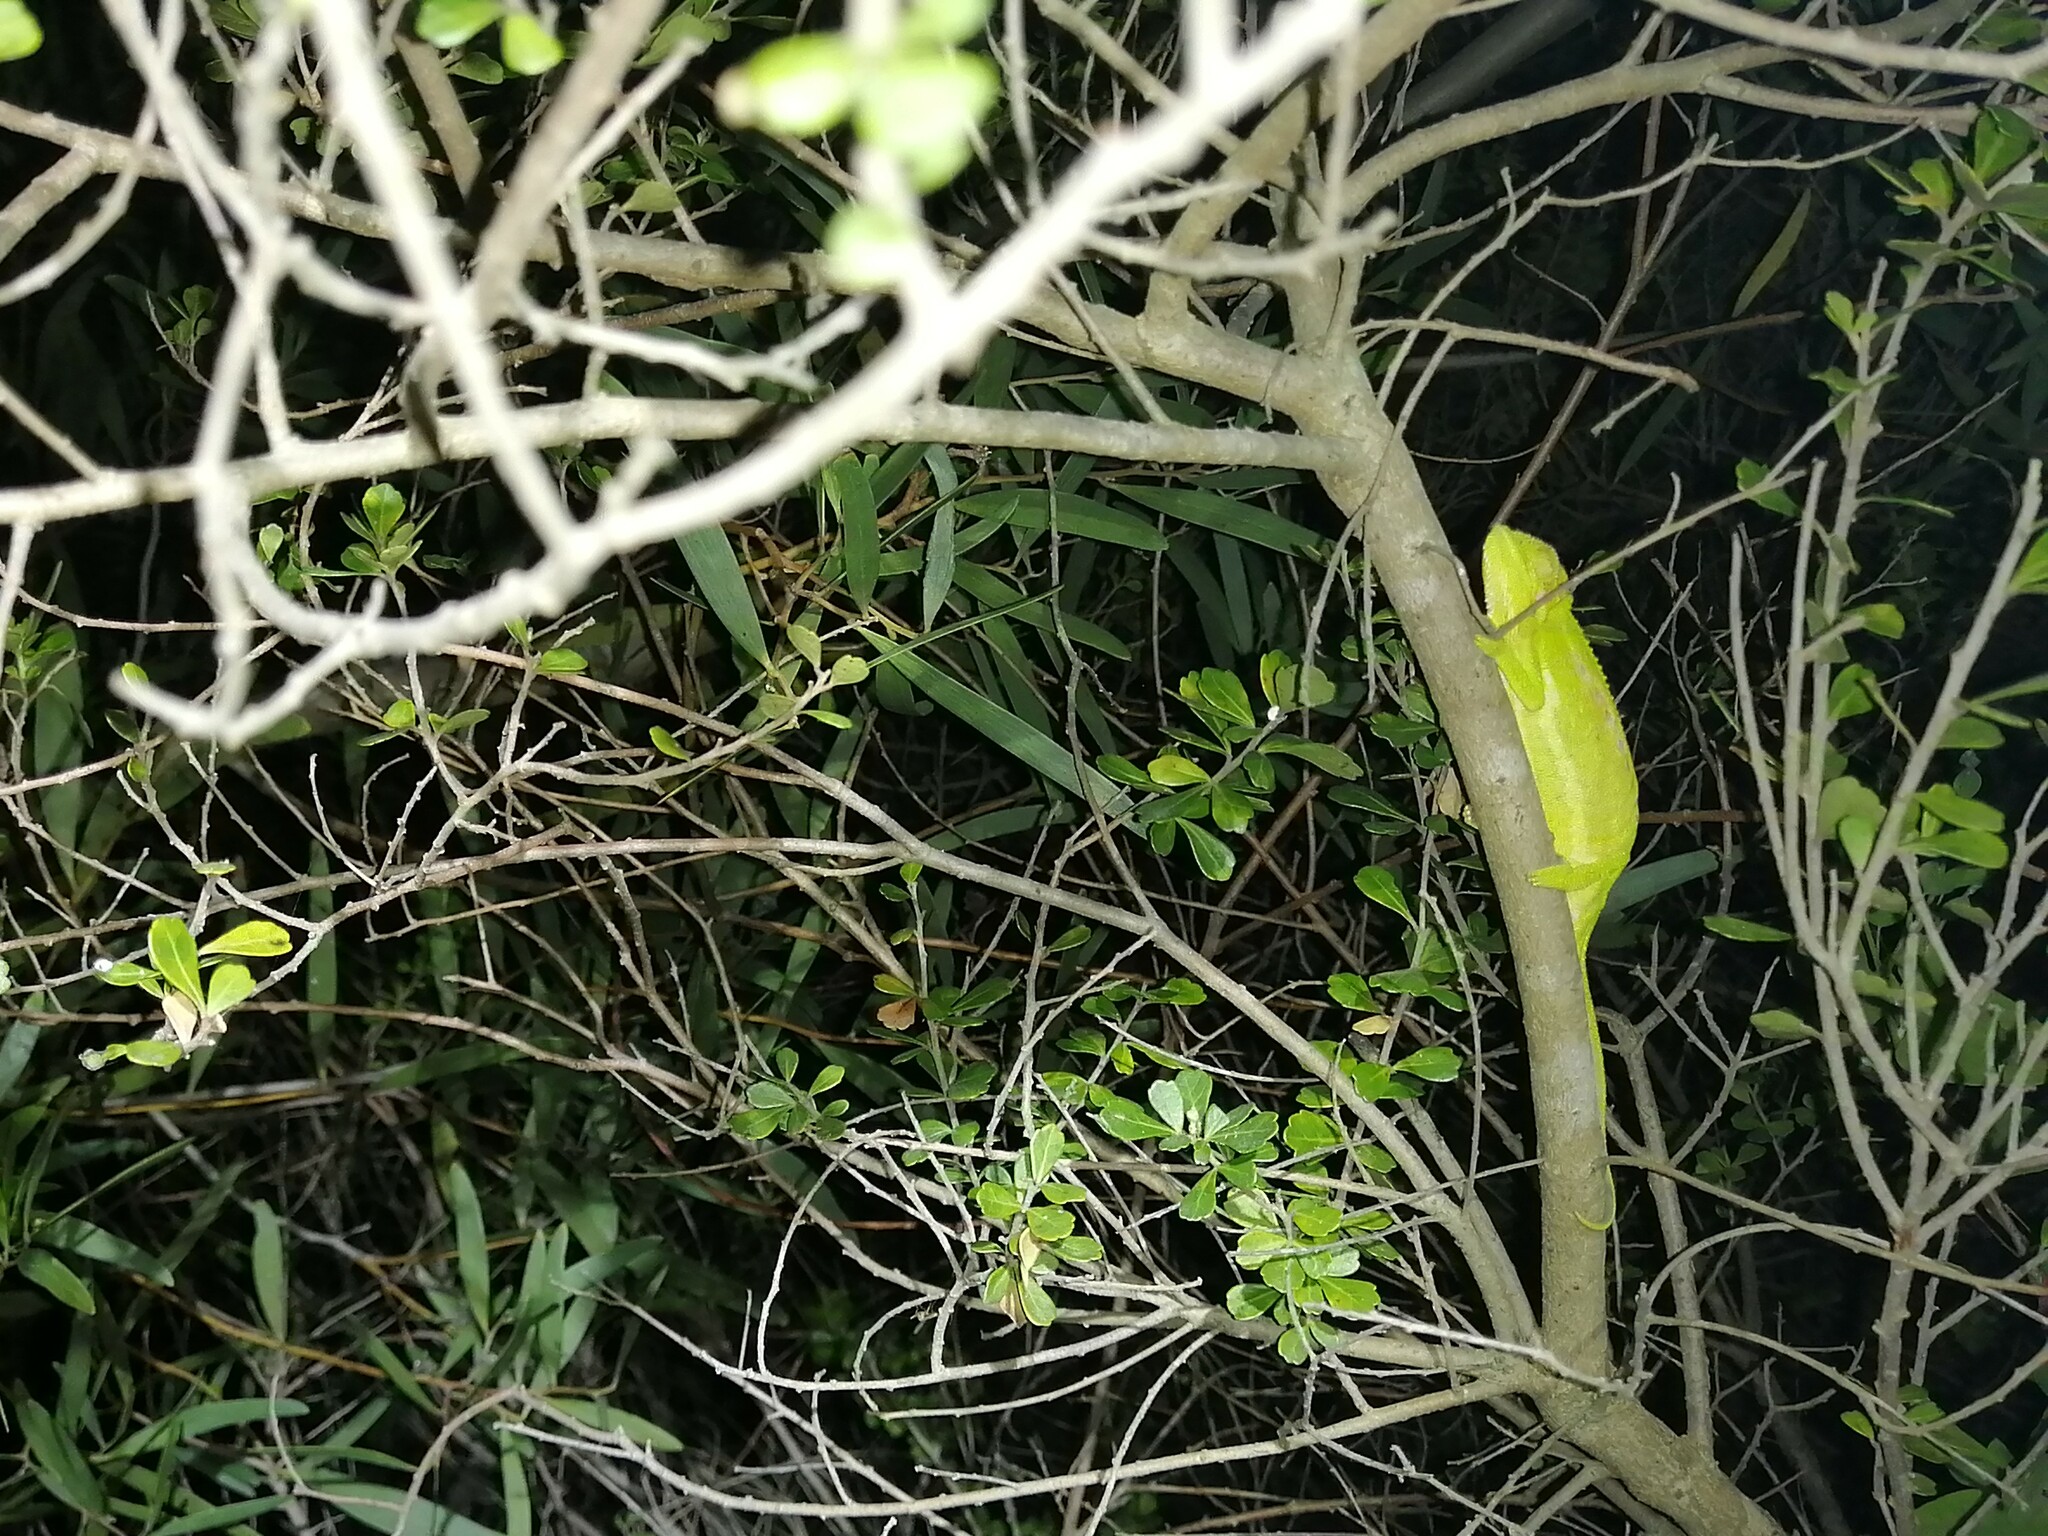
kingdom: Animalia
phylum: Chordata
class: Squamata
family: Chamaeleonidae
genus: Bradypodion
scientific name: Bradypodion pumilum
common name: Cape dwarf chameleon
